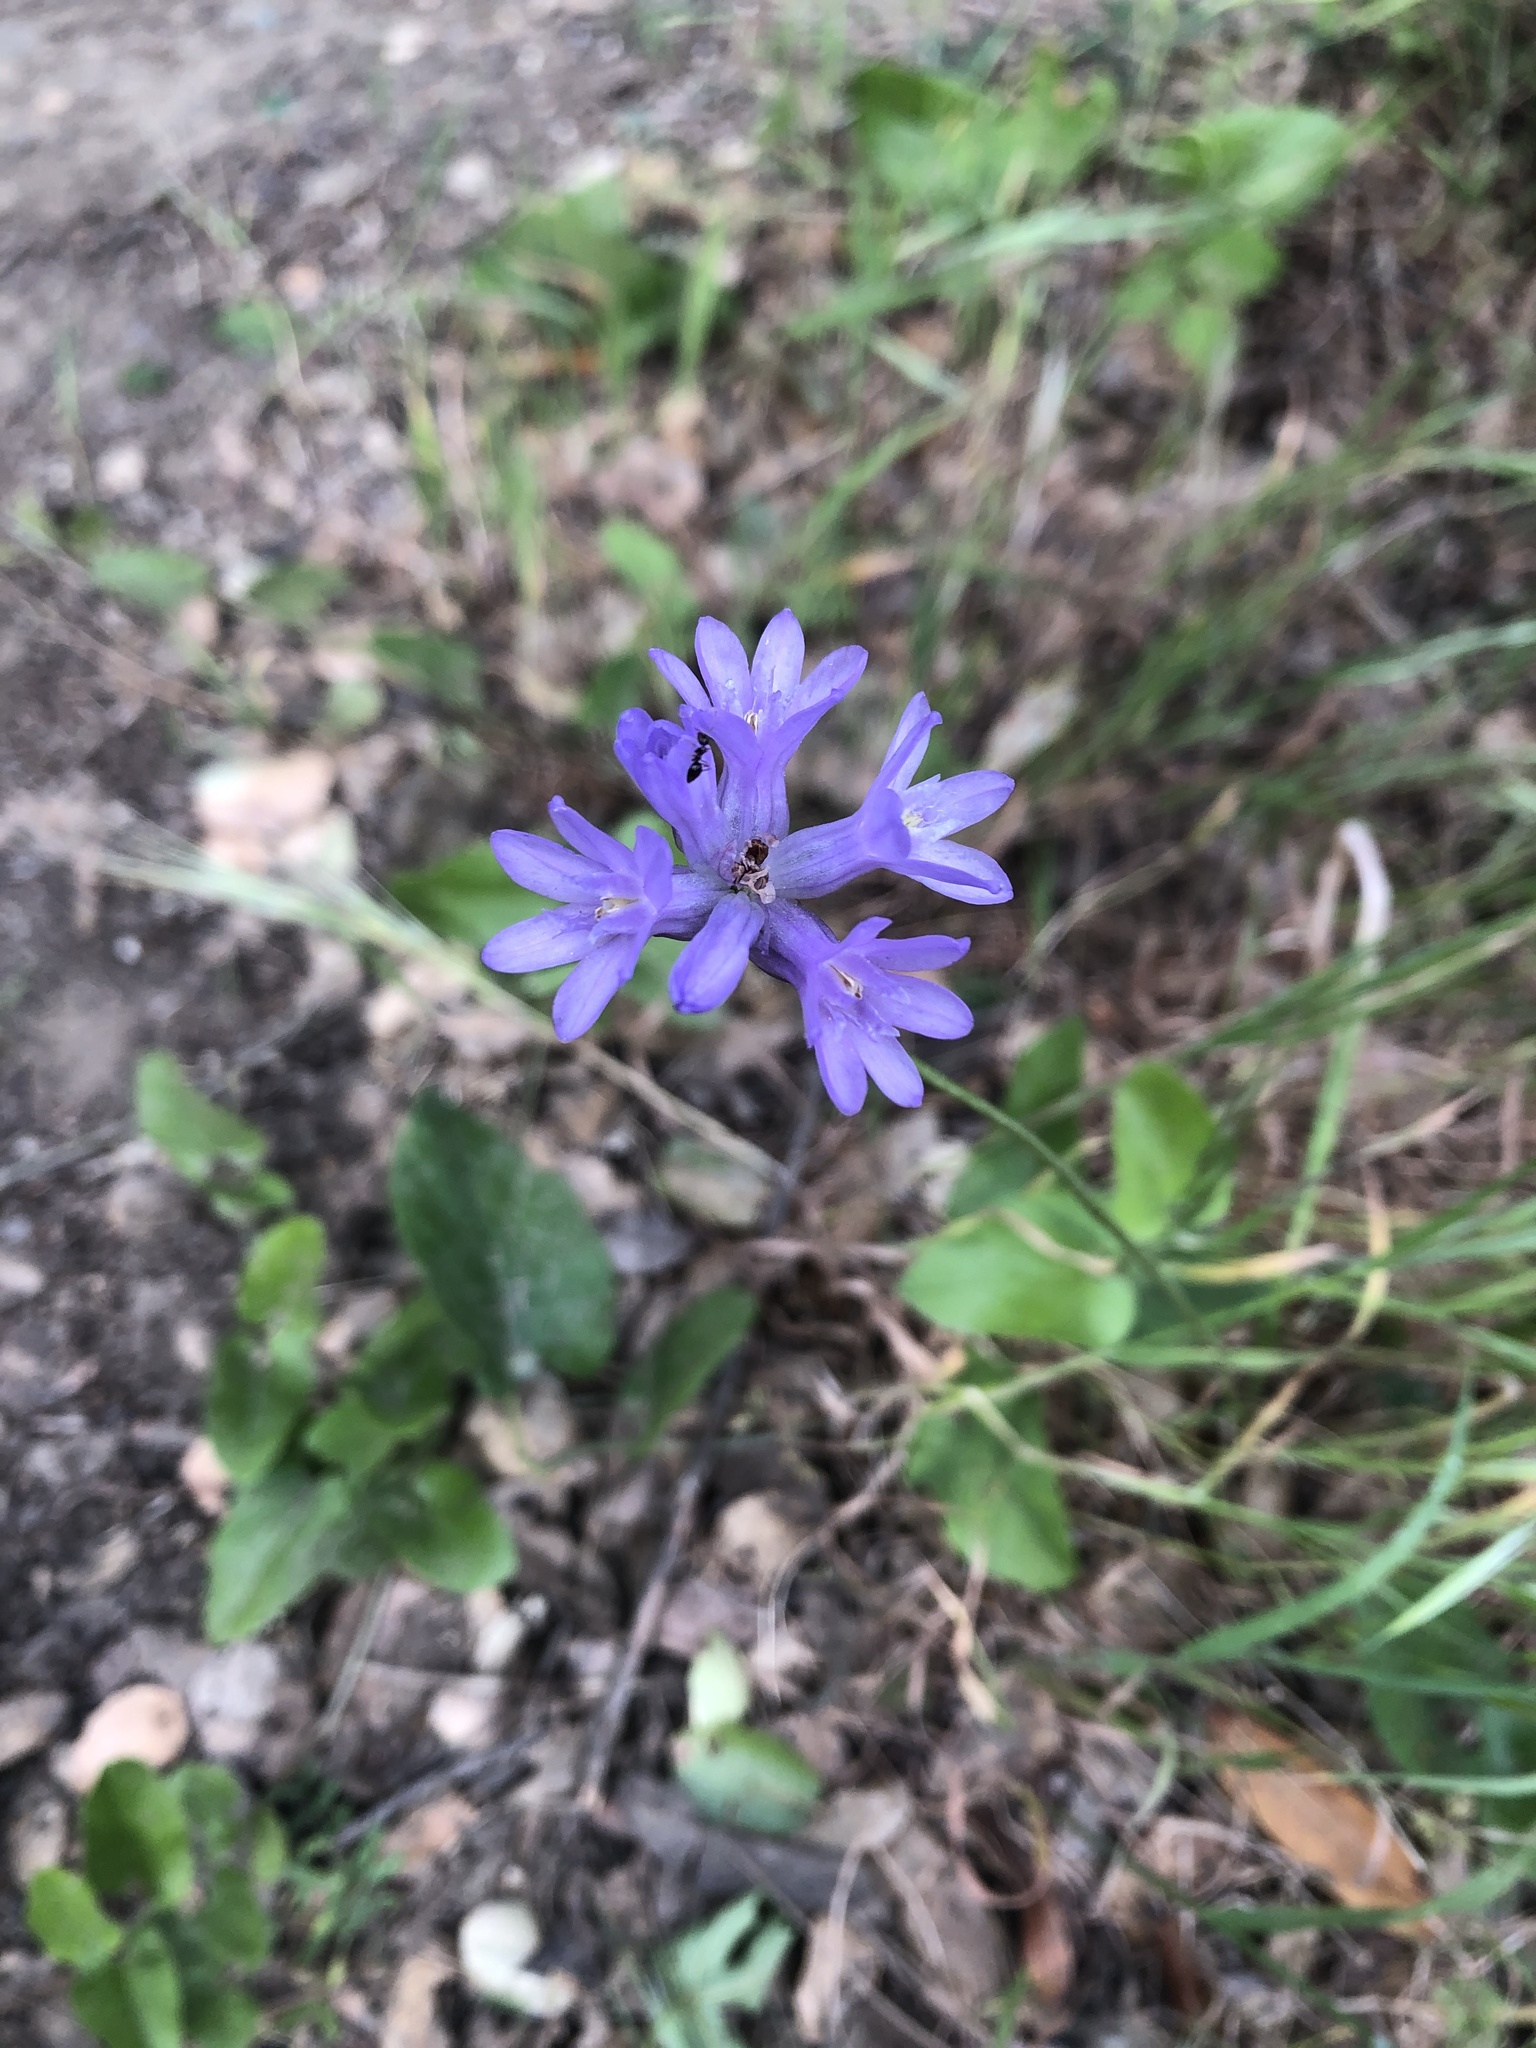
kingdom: Plantae
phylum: Tracheophyta
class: Liliopsida
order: Asparagales
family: Asparagaceae
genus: Dichelostemma
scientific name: Dichelostemma congestum
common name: Fork-tooth ookow
